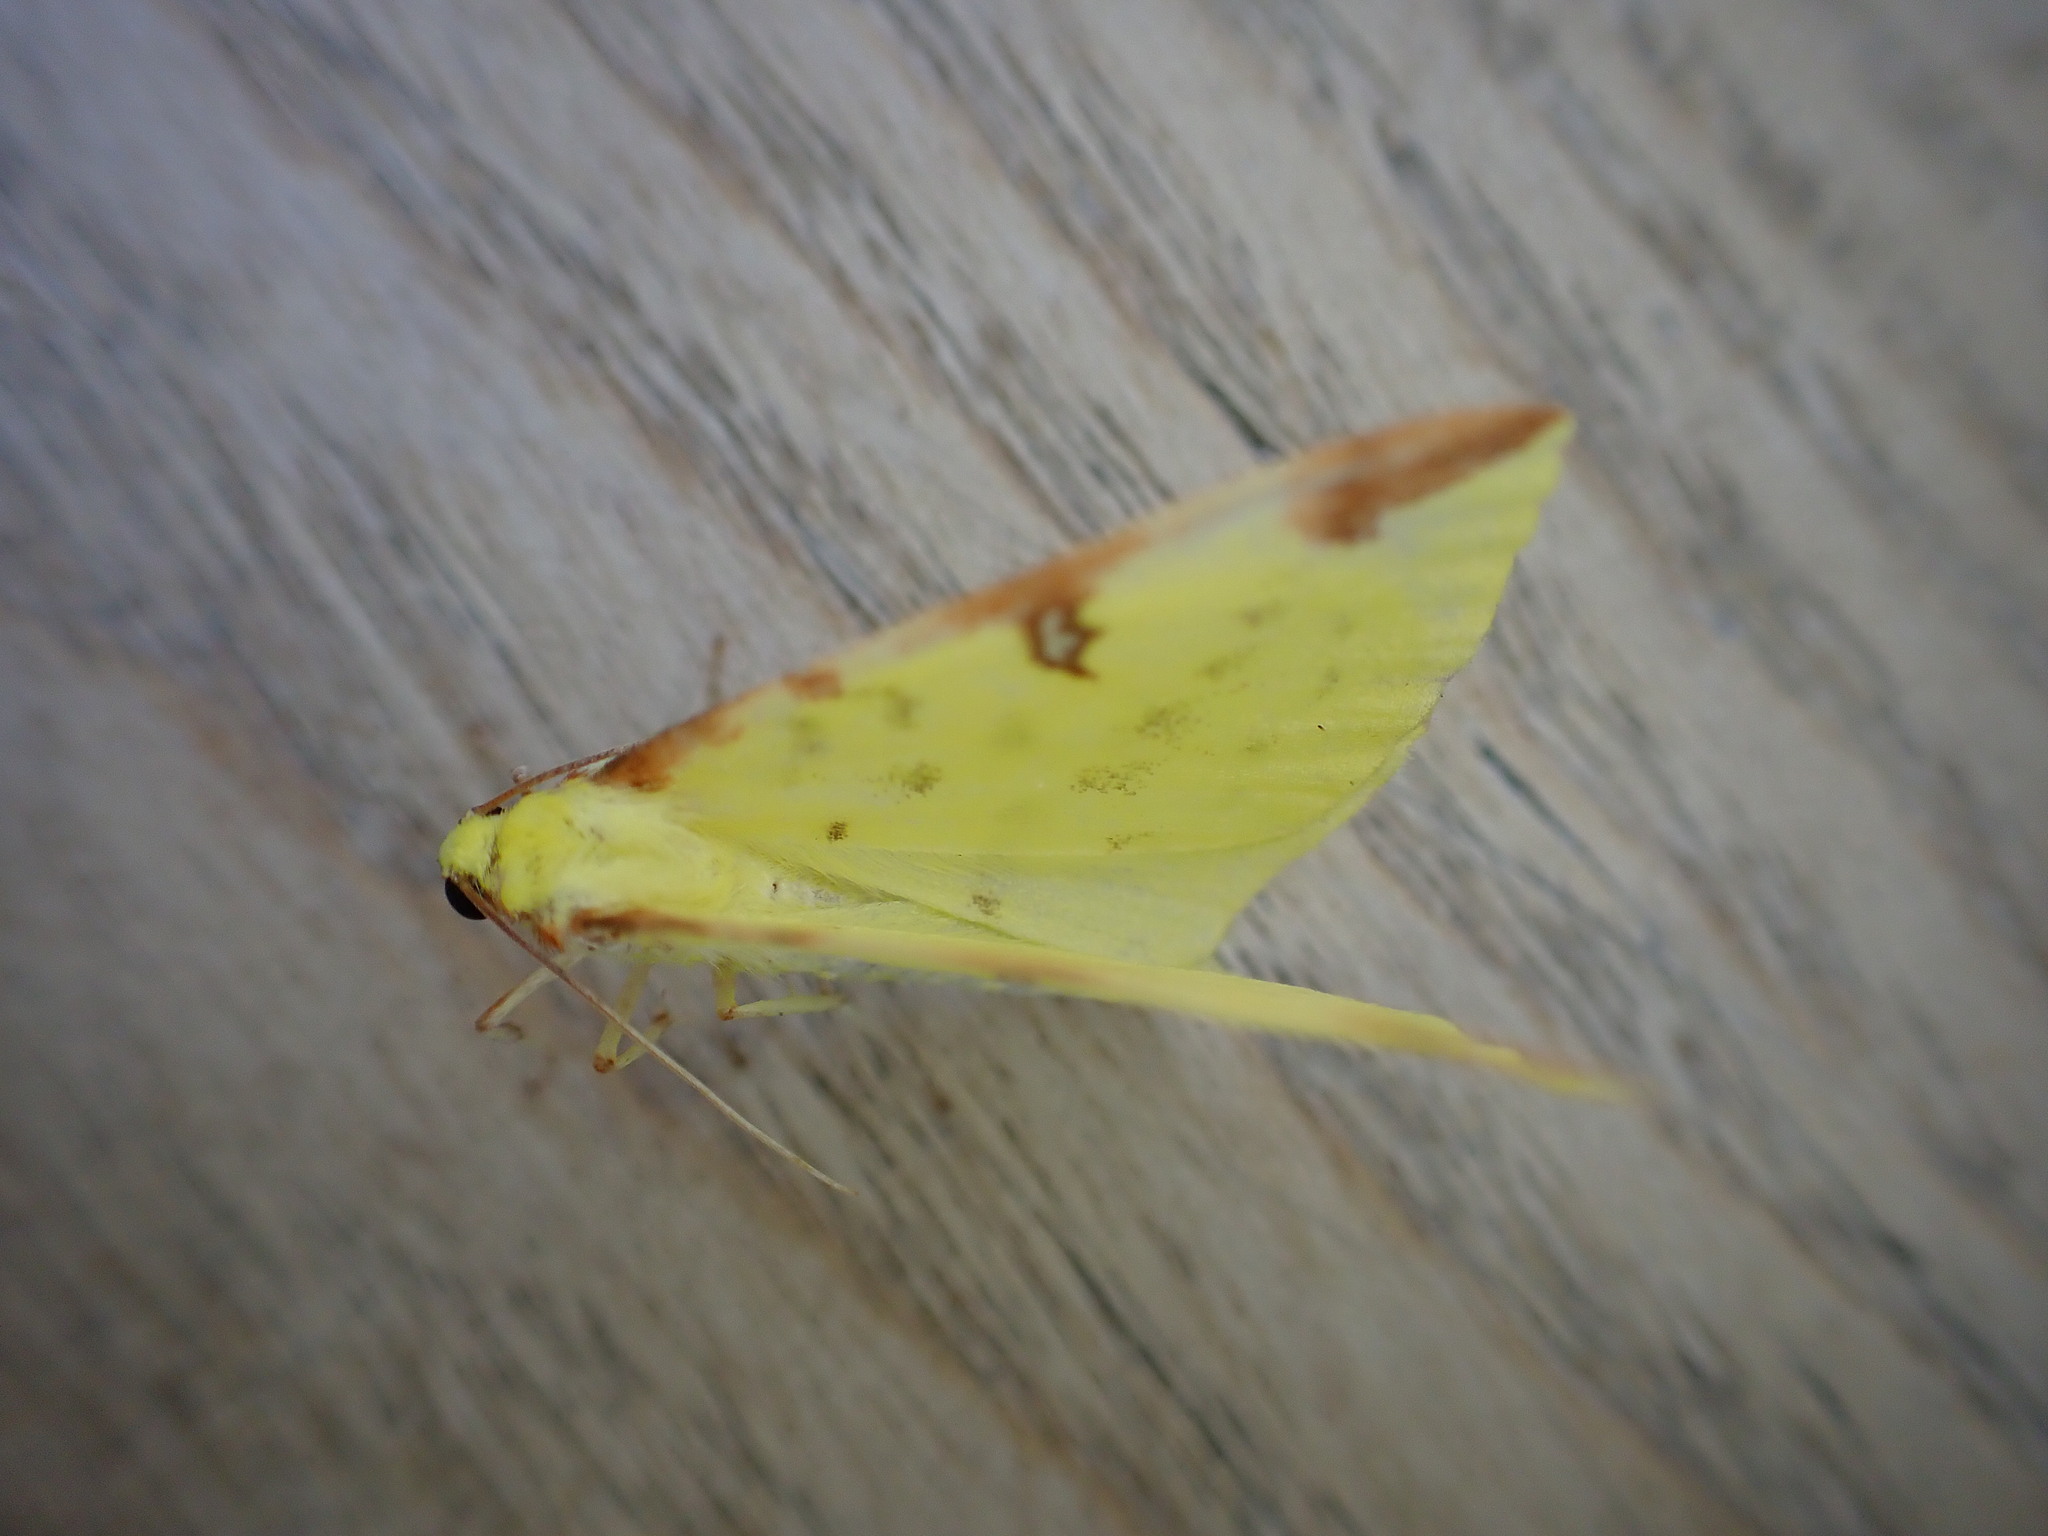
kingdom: Animalia
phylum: Arthropoda
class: Insecta
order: Lepidoptera
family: Geometridae
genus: Opisthograptis
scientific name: Opisthograptis luteolata
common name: Brimstone moth
